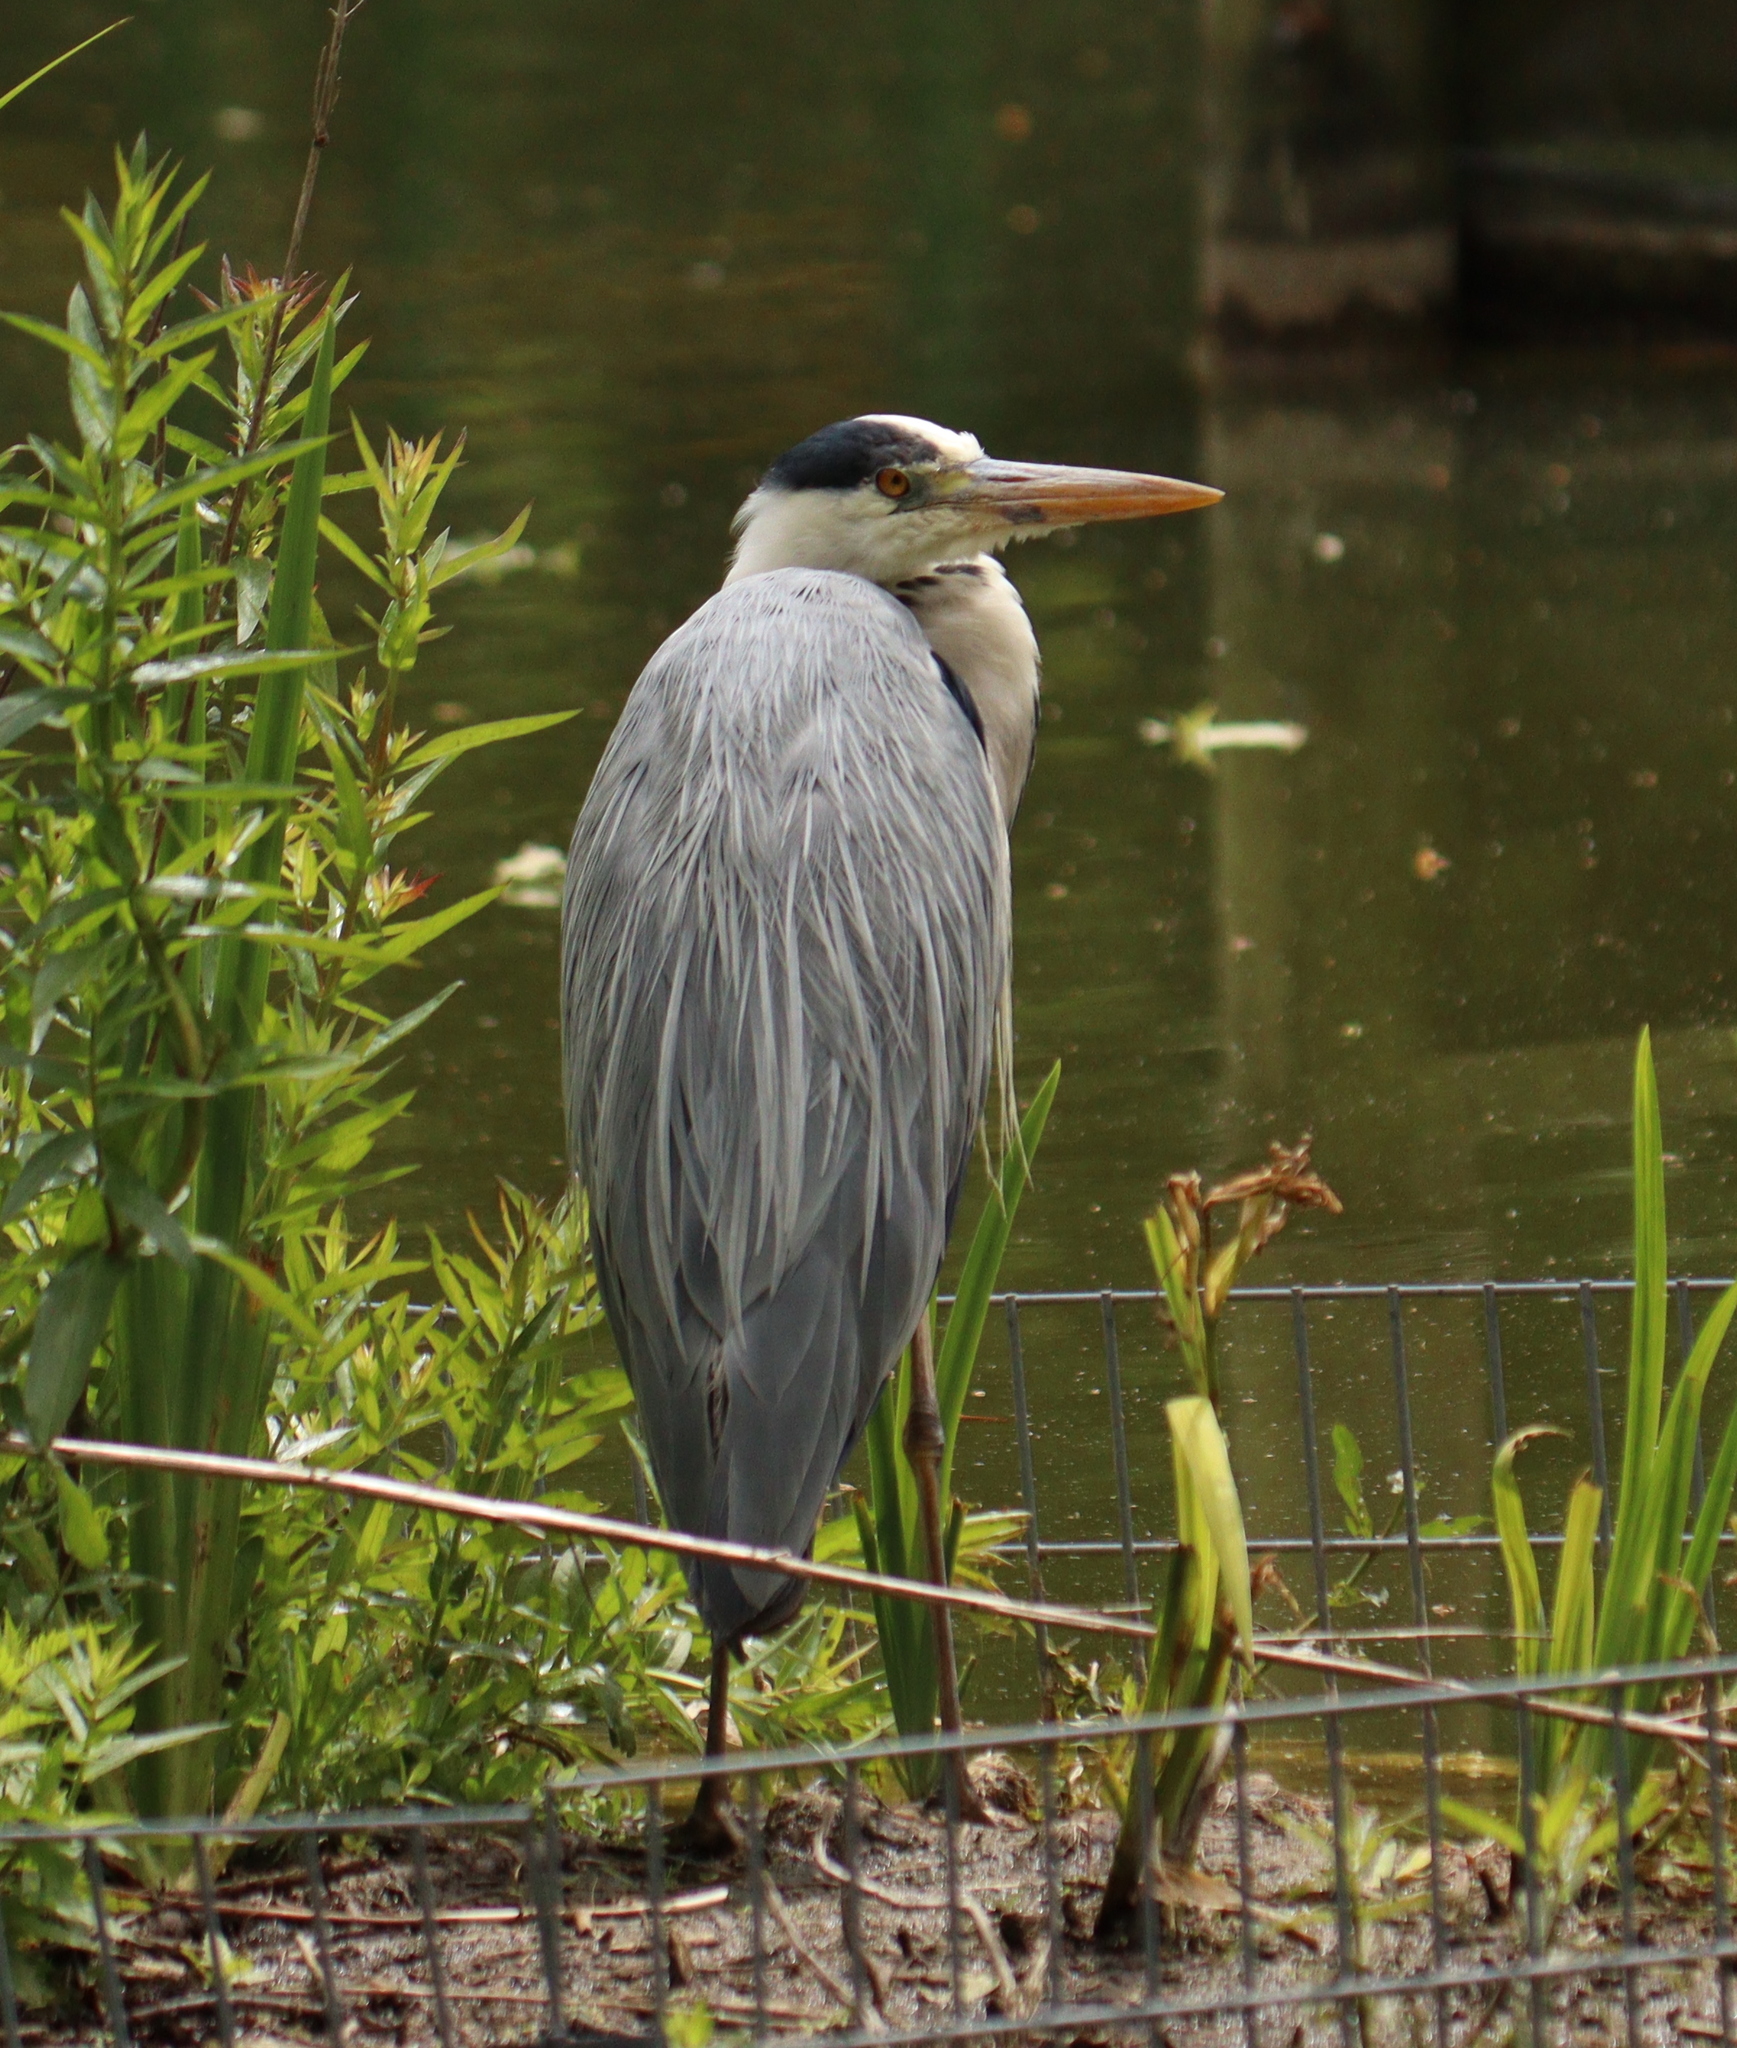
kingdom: Animalia
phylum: Chordata
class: Aves
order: Pelecaniformes
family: Ardeidae
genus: Ardea
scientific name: Ardea cinerea
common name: Grey heron
